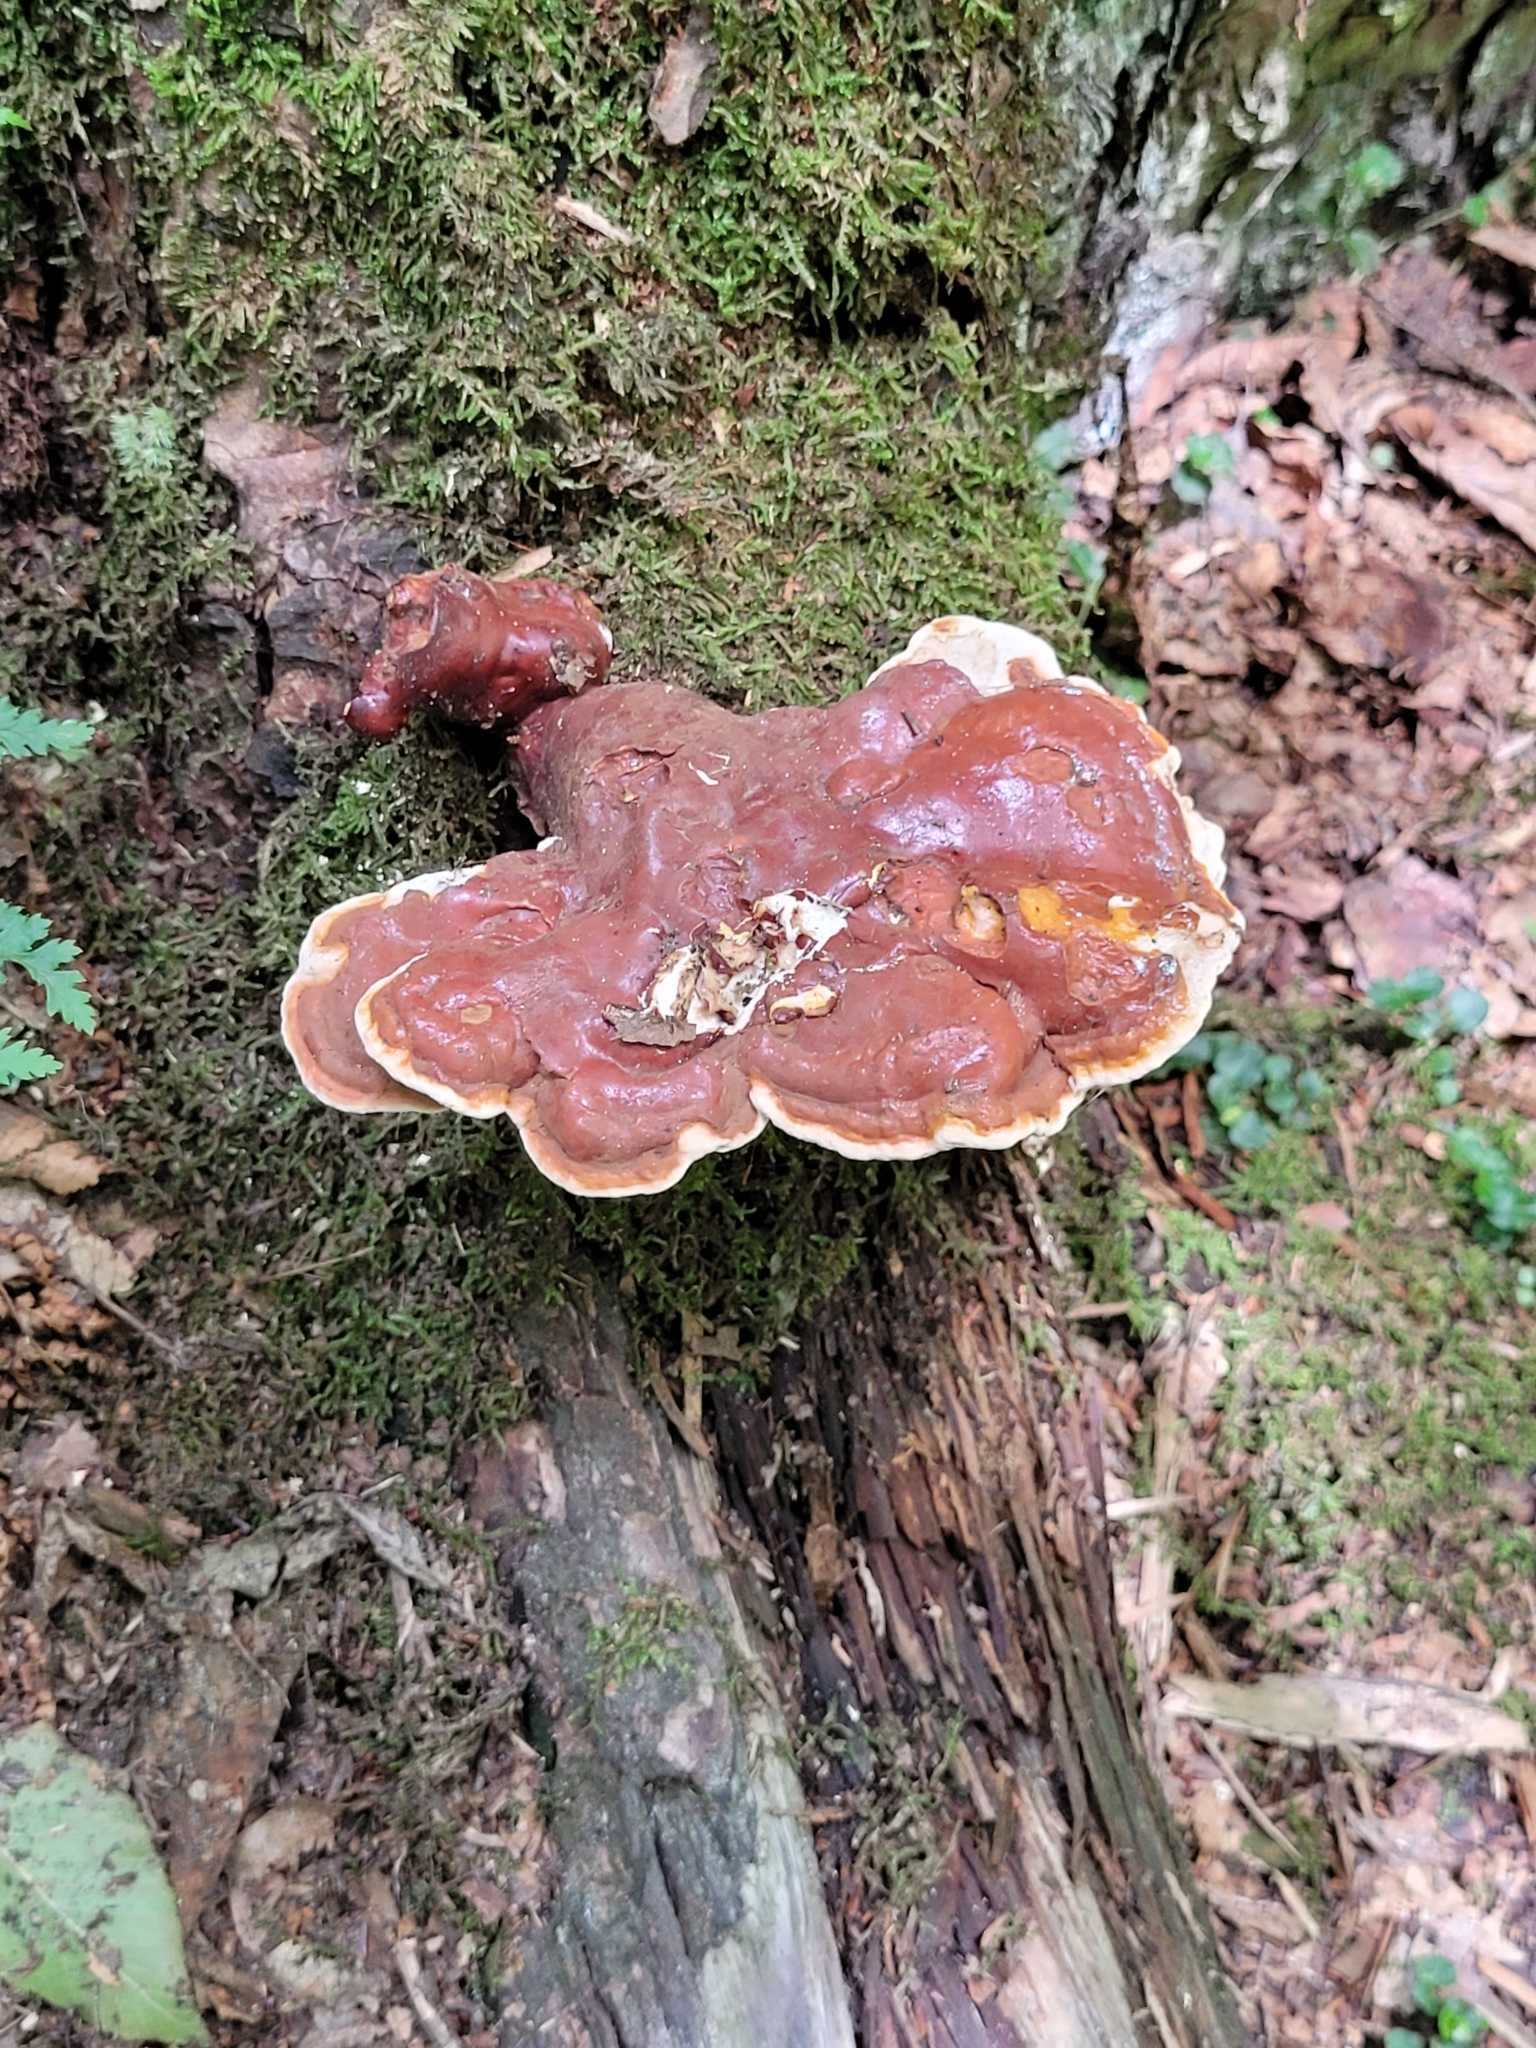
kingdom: Fungi
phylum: Basidiomycota
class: Agaricomycetes
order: Polyporales
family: Polyporaceae
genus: Ganoderma
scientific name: Ganoderma tsugae
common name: Hemlock varnish shelf
